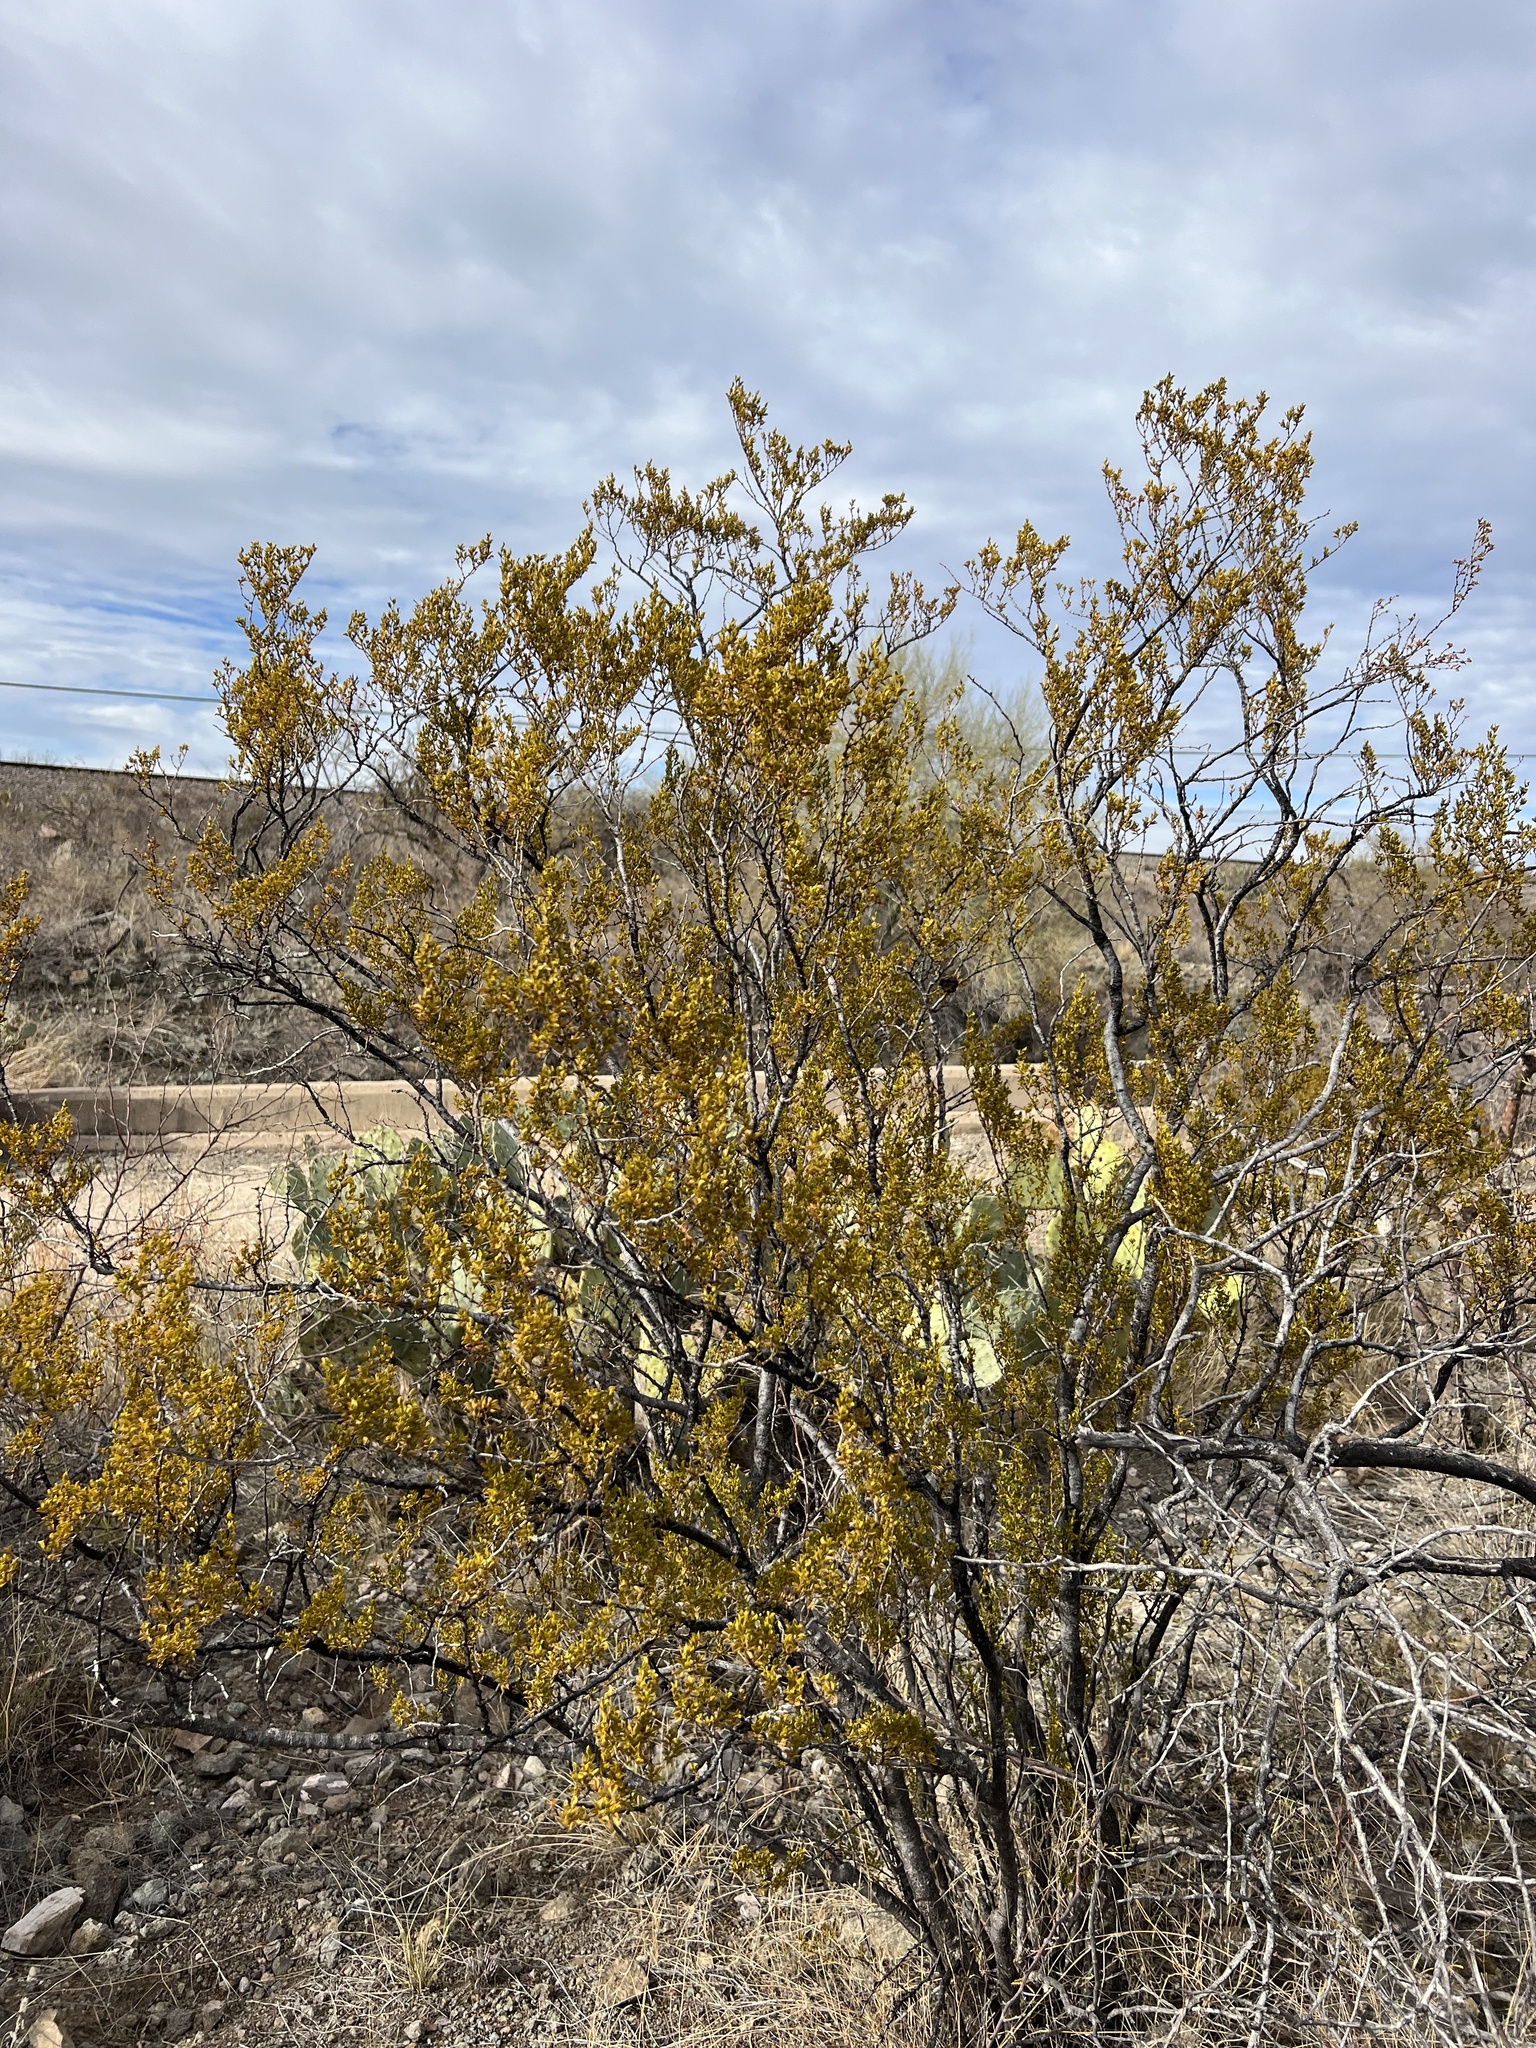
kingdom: Plantae
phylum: Tracheophyta
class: Magnoliopsida
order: Zygophyllales
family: Zygophyllaceae
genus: Larrea
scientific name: Larrea tridentata
